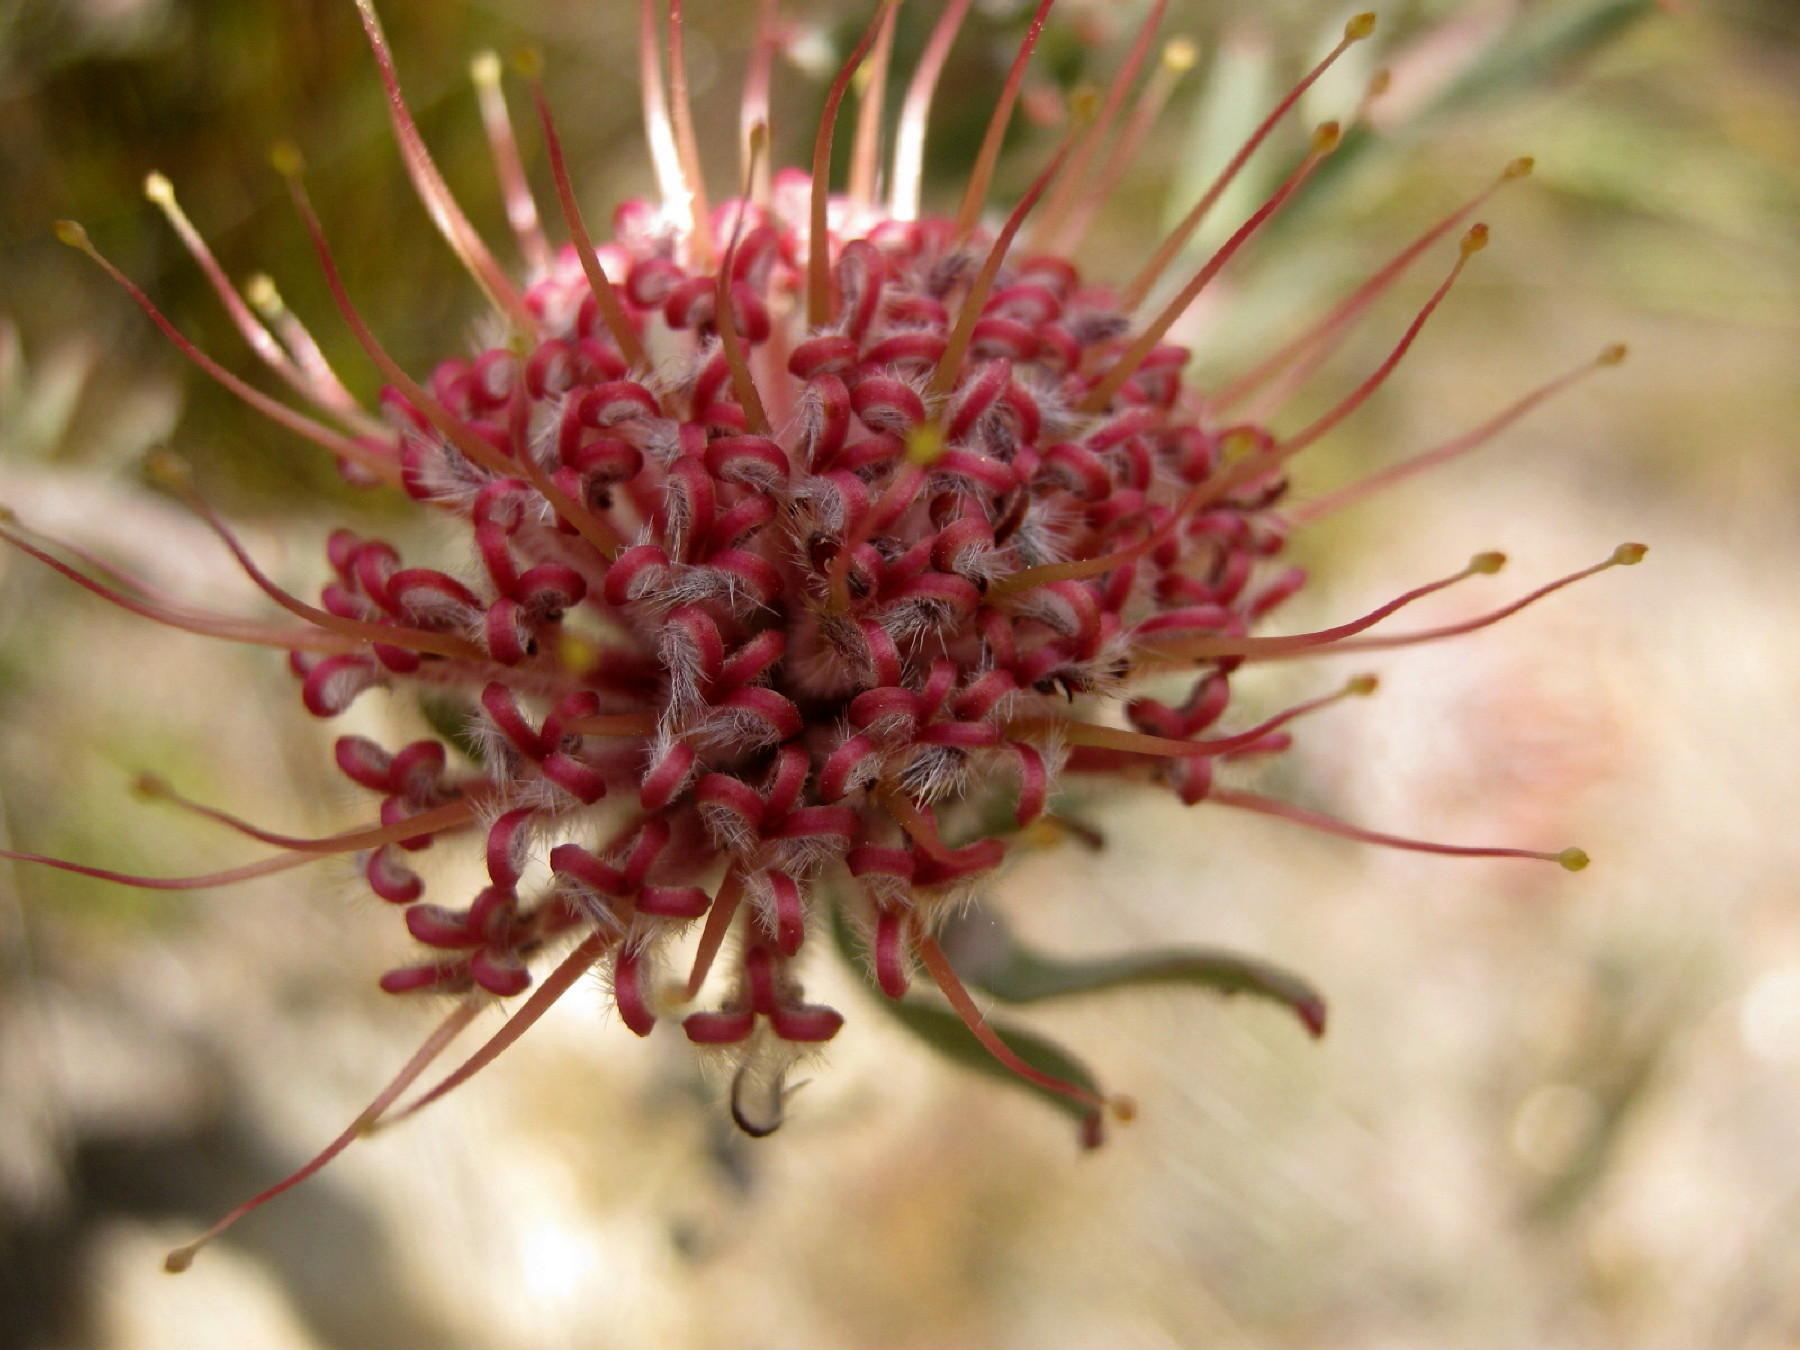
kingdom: Plantae
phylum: Tracheophyta
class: Magnoliopsida
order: Proteales
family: Proteaceae
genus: Leucospermum
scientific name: Leucospermum calligerum
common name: Arid pincushion
